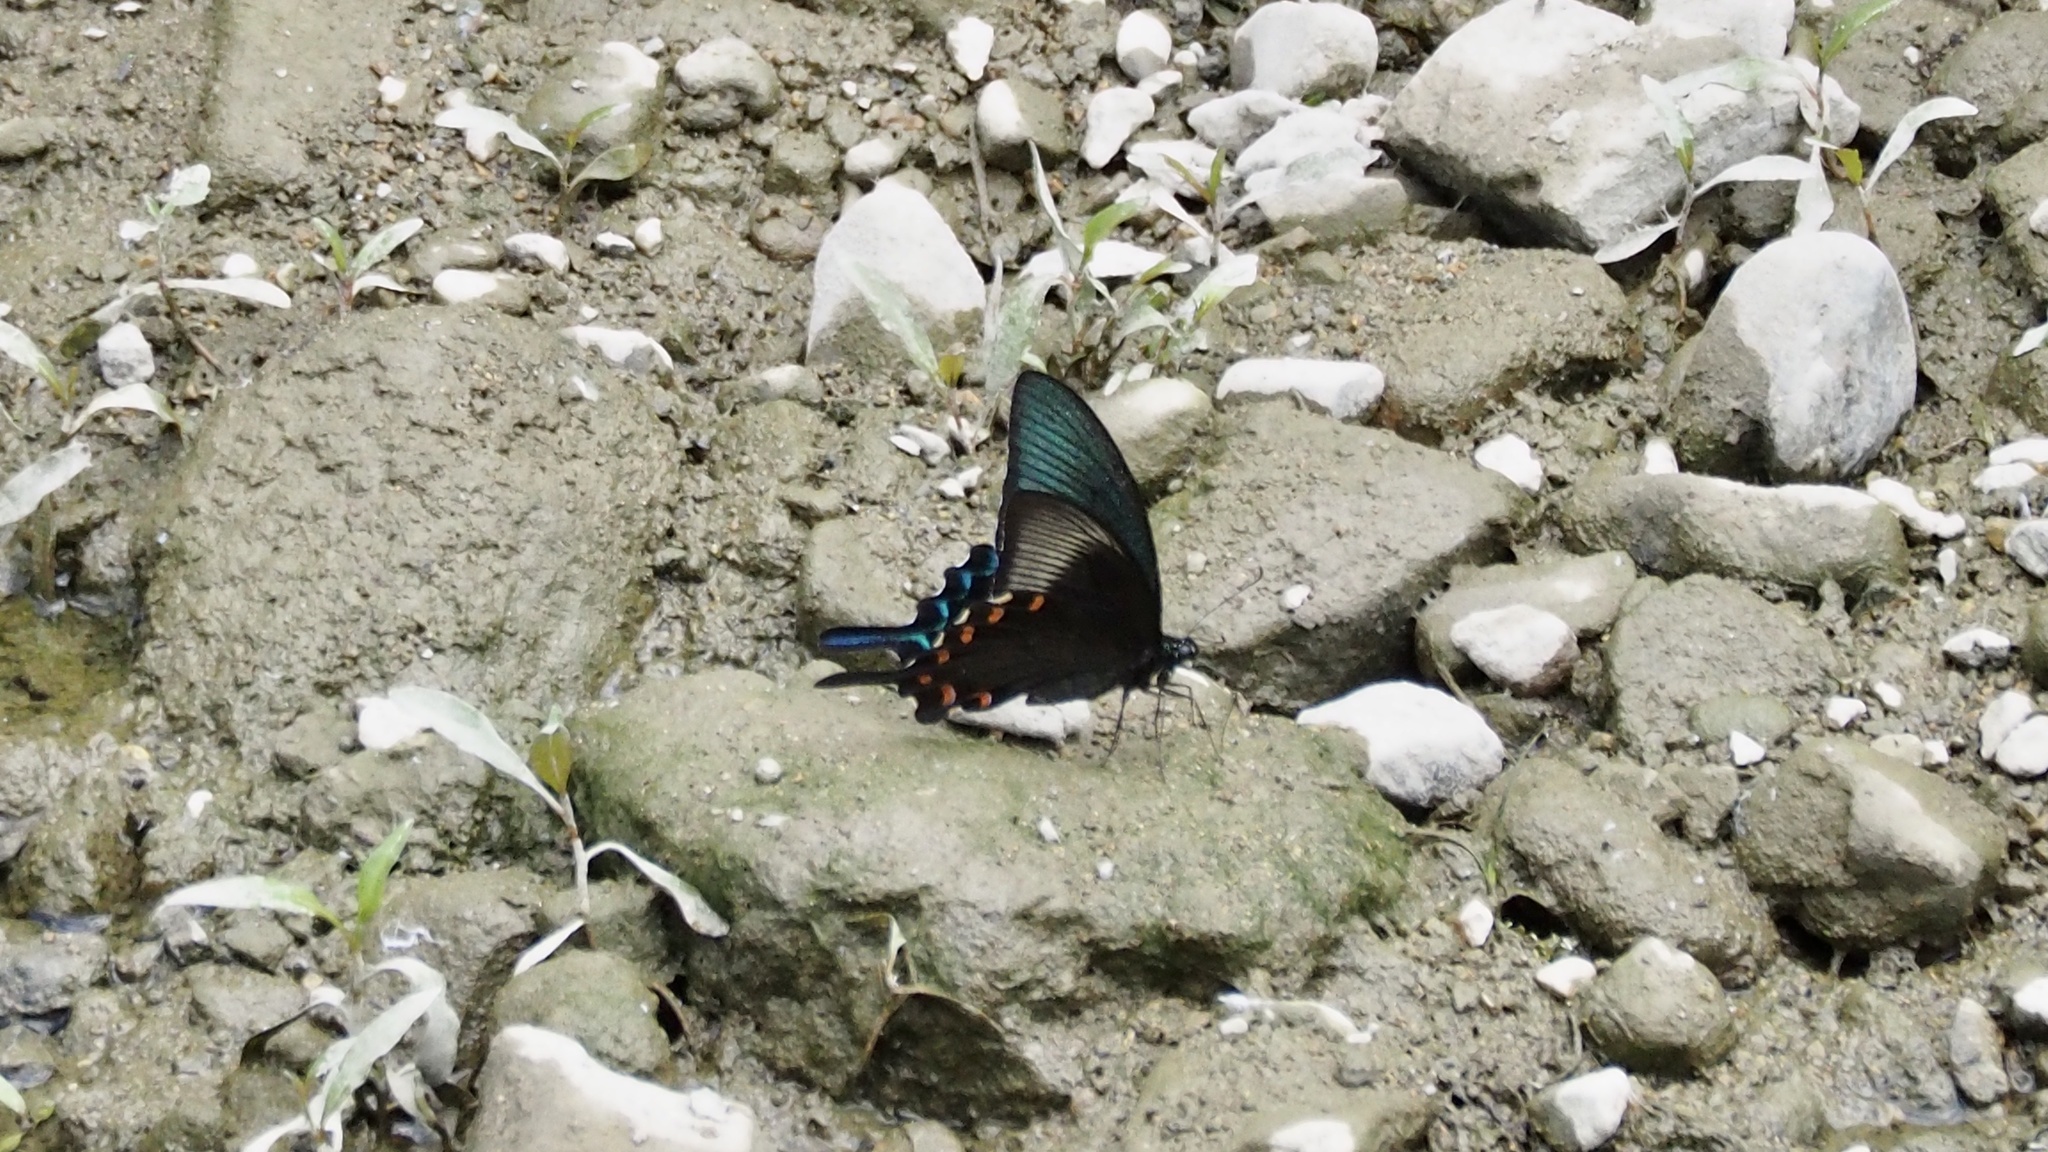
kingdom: Animalia
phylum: Arthropoda
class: Insecta
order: Lepidoptera
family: Papilionidae
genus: Papilio
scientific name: Papilio dehaanii
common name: Japanese peacock swallowtail
